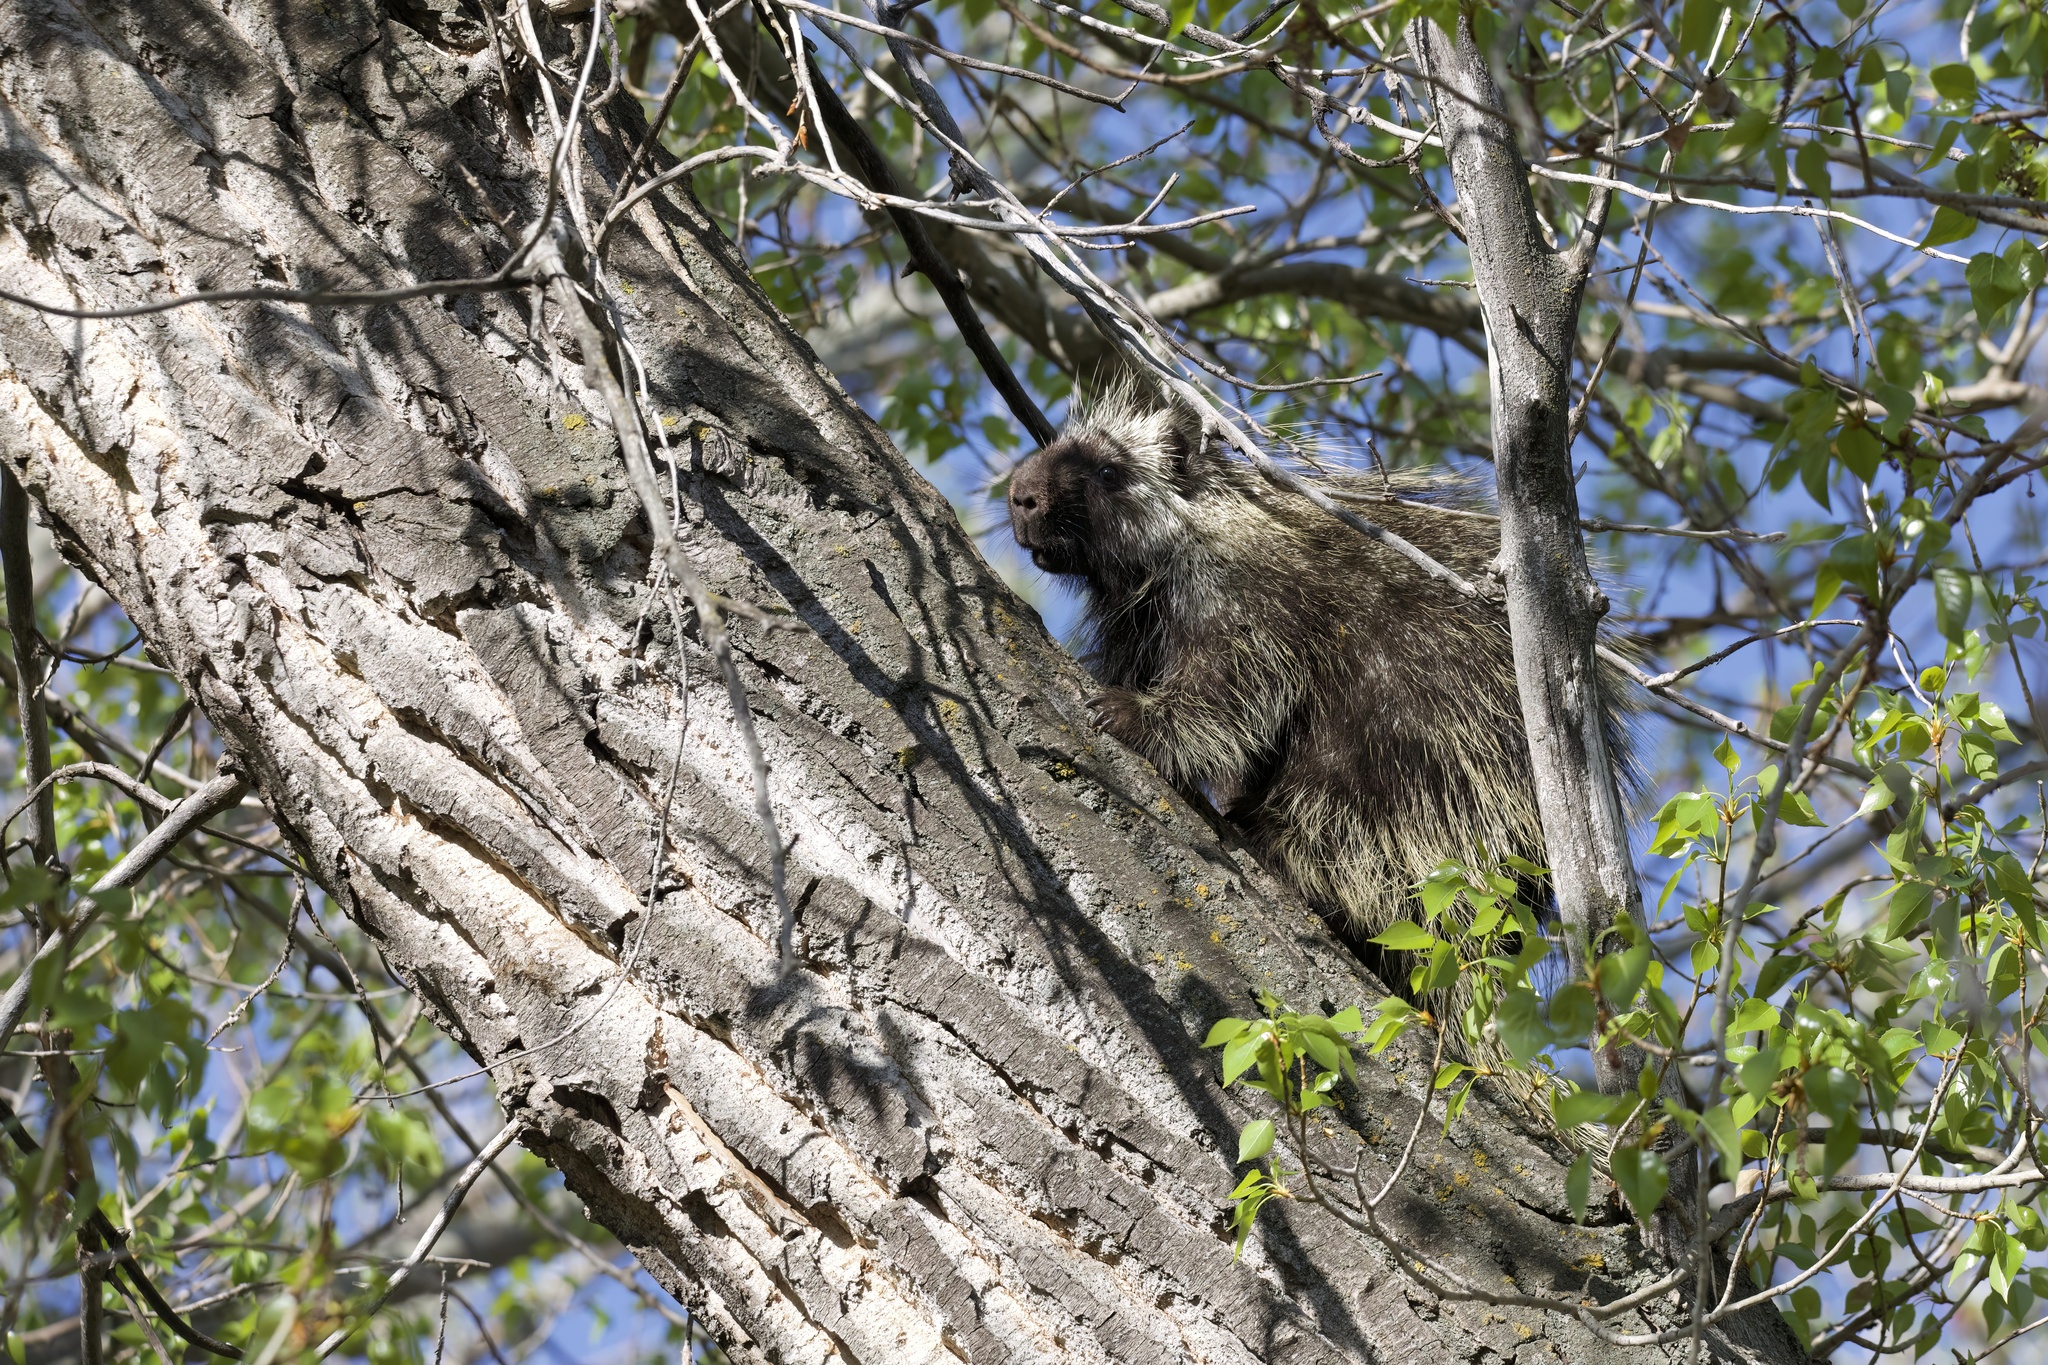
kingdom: Animalia
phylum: Chordata
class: Mammalia
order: Rodentia
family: Erethizontidae
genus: Erethizon
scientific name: Erethizon dorsatus
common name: North american porcupine
